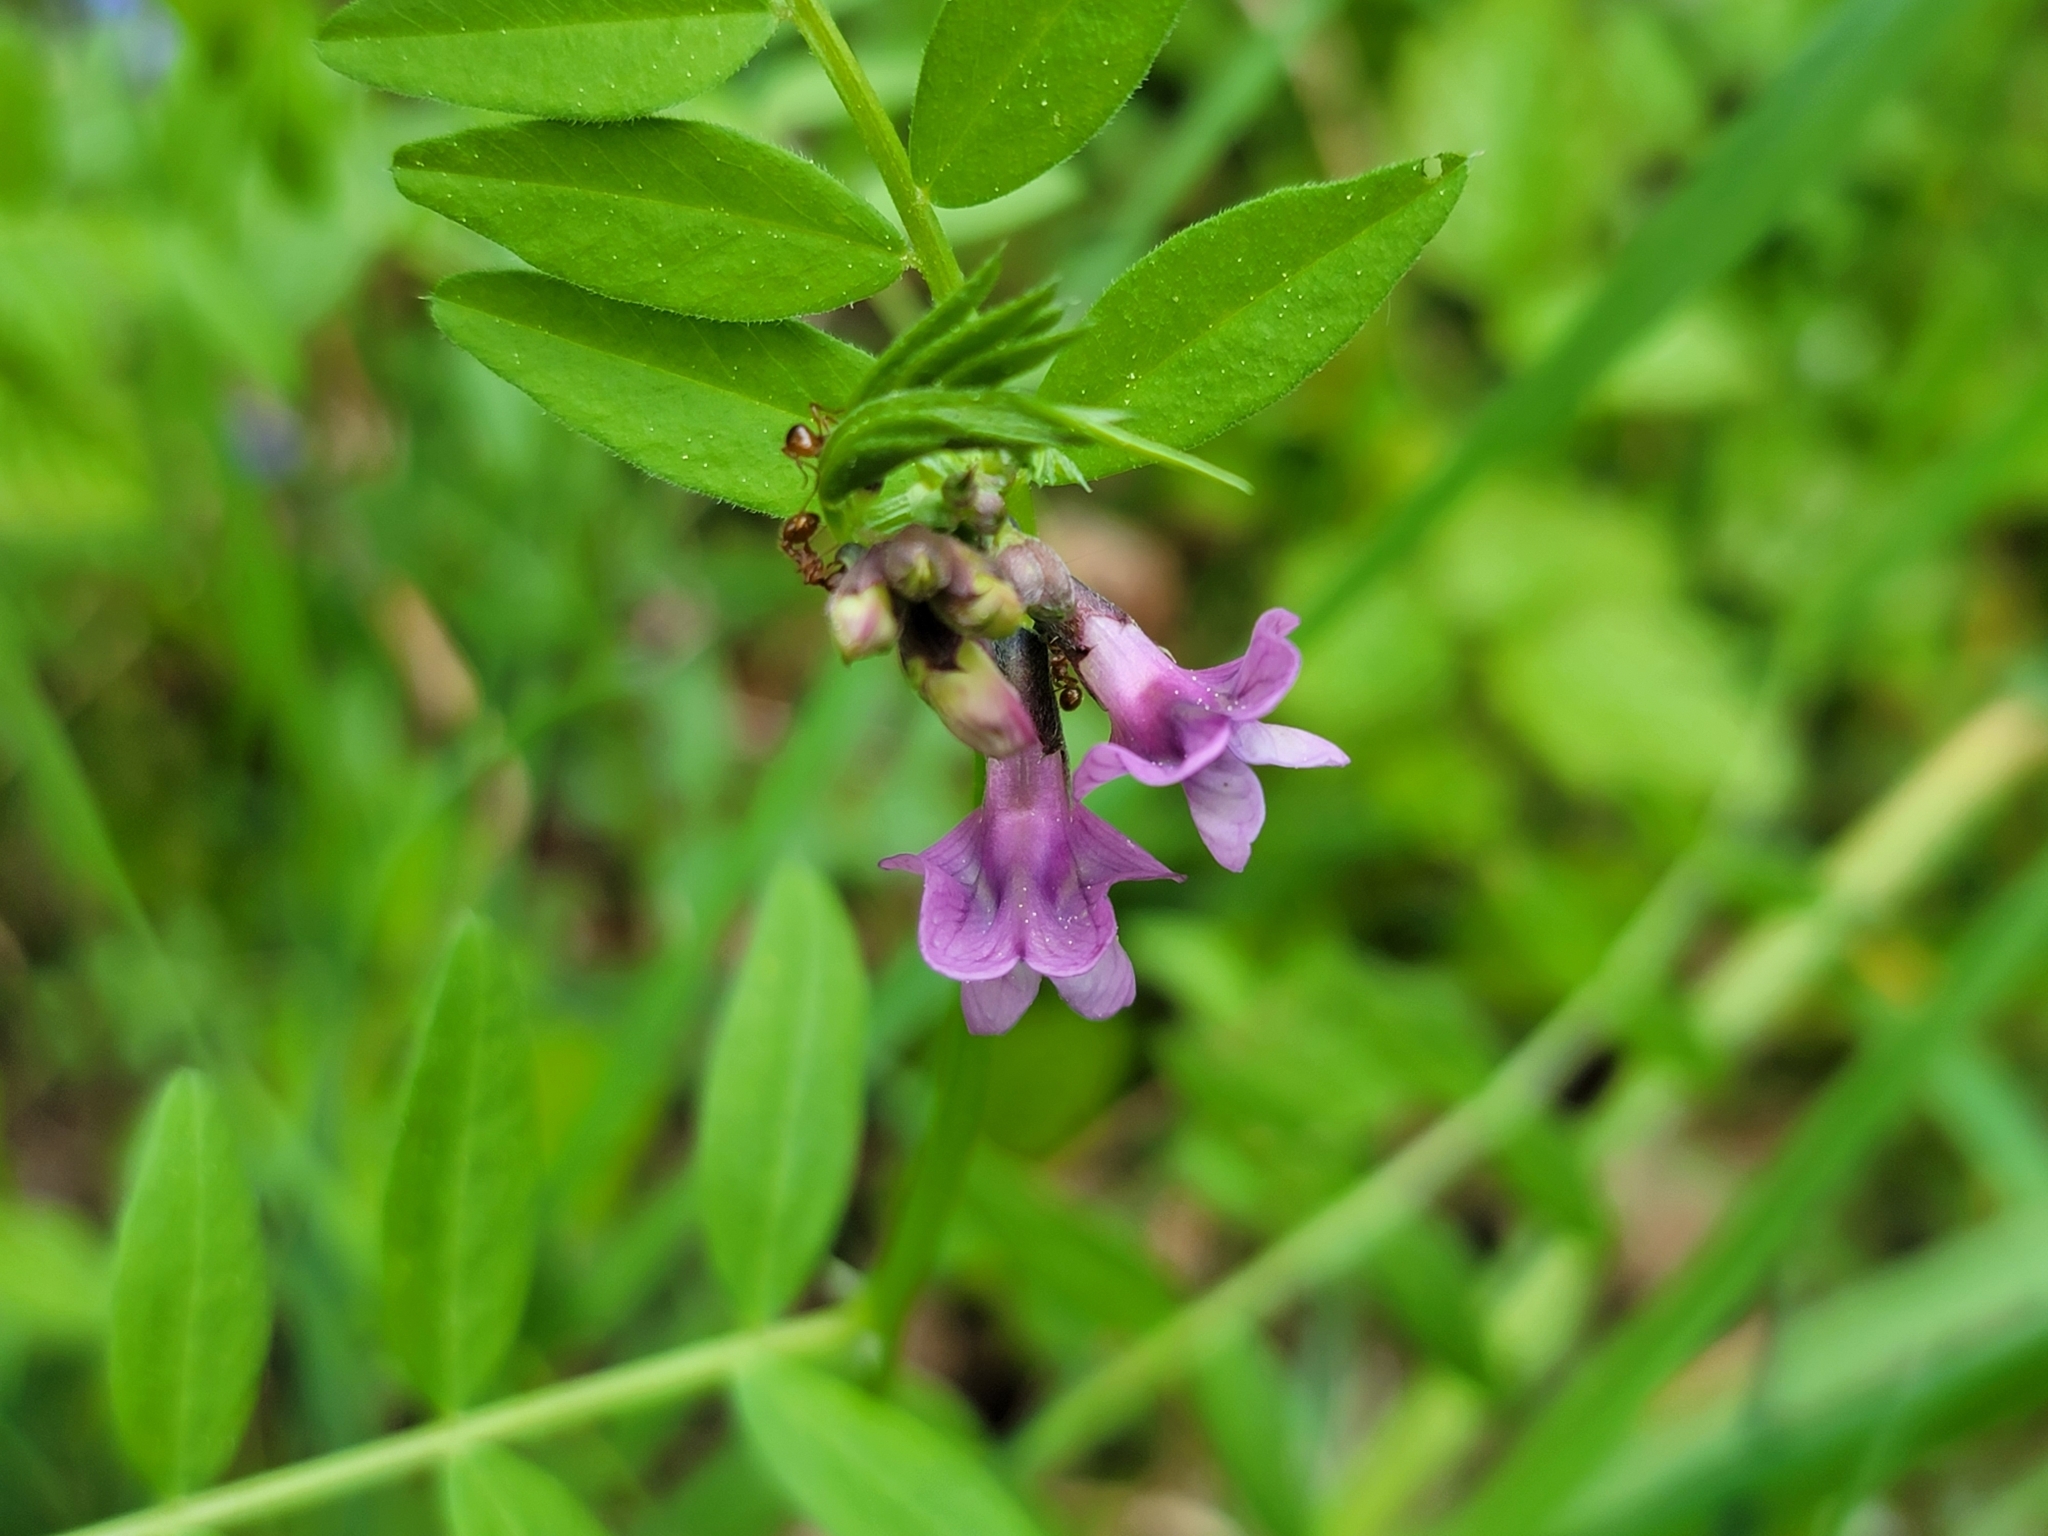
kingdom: Plantae
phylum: Tracheophyta
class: Magnoliopsida
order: Fabales
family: Fabaceae
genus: Vicia
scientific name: Vicia sepium
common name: Bush vetch
